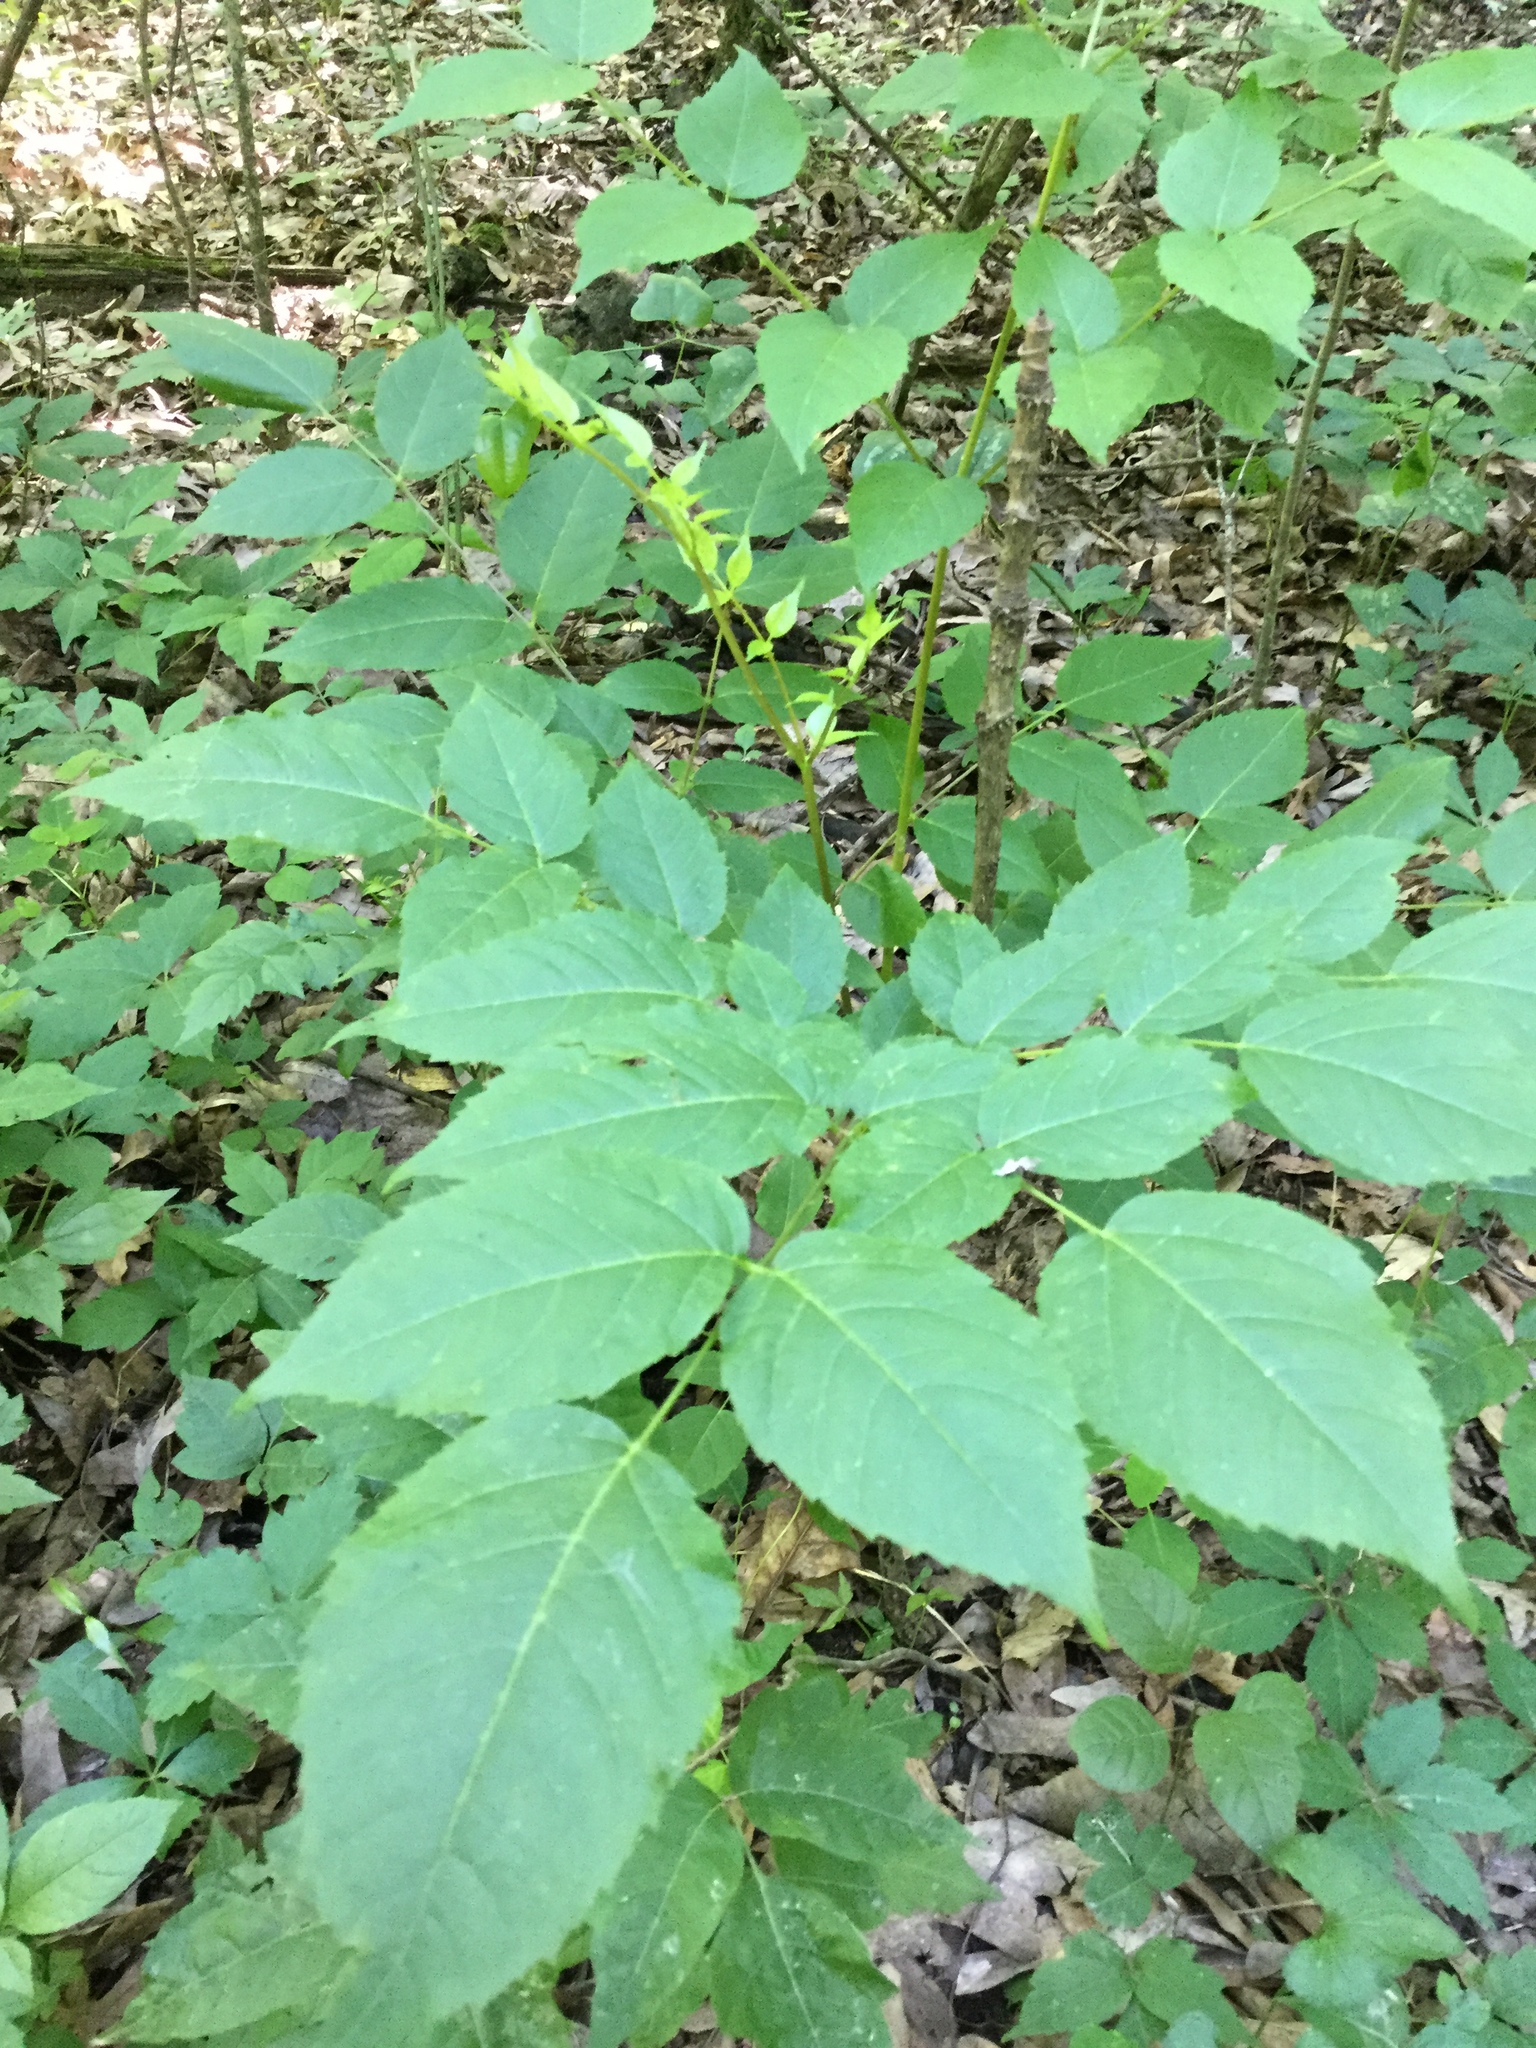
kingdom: Plantae
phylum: Tracheophyta
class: Magnoliopsida
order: Apiales
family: Araliaceae
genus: Aralia
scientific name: Aralia spinosa
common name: Hercules'-club
